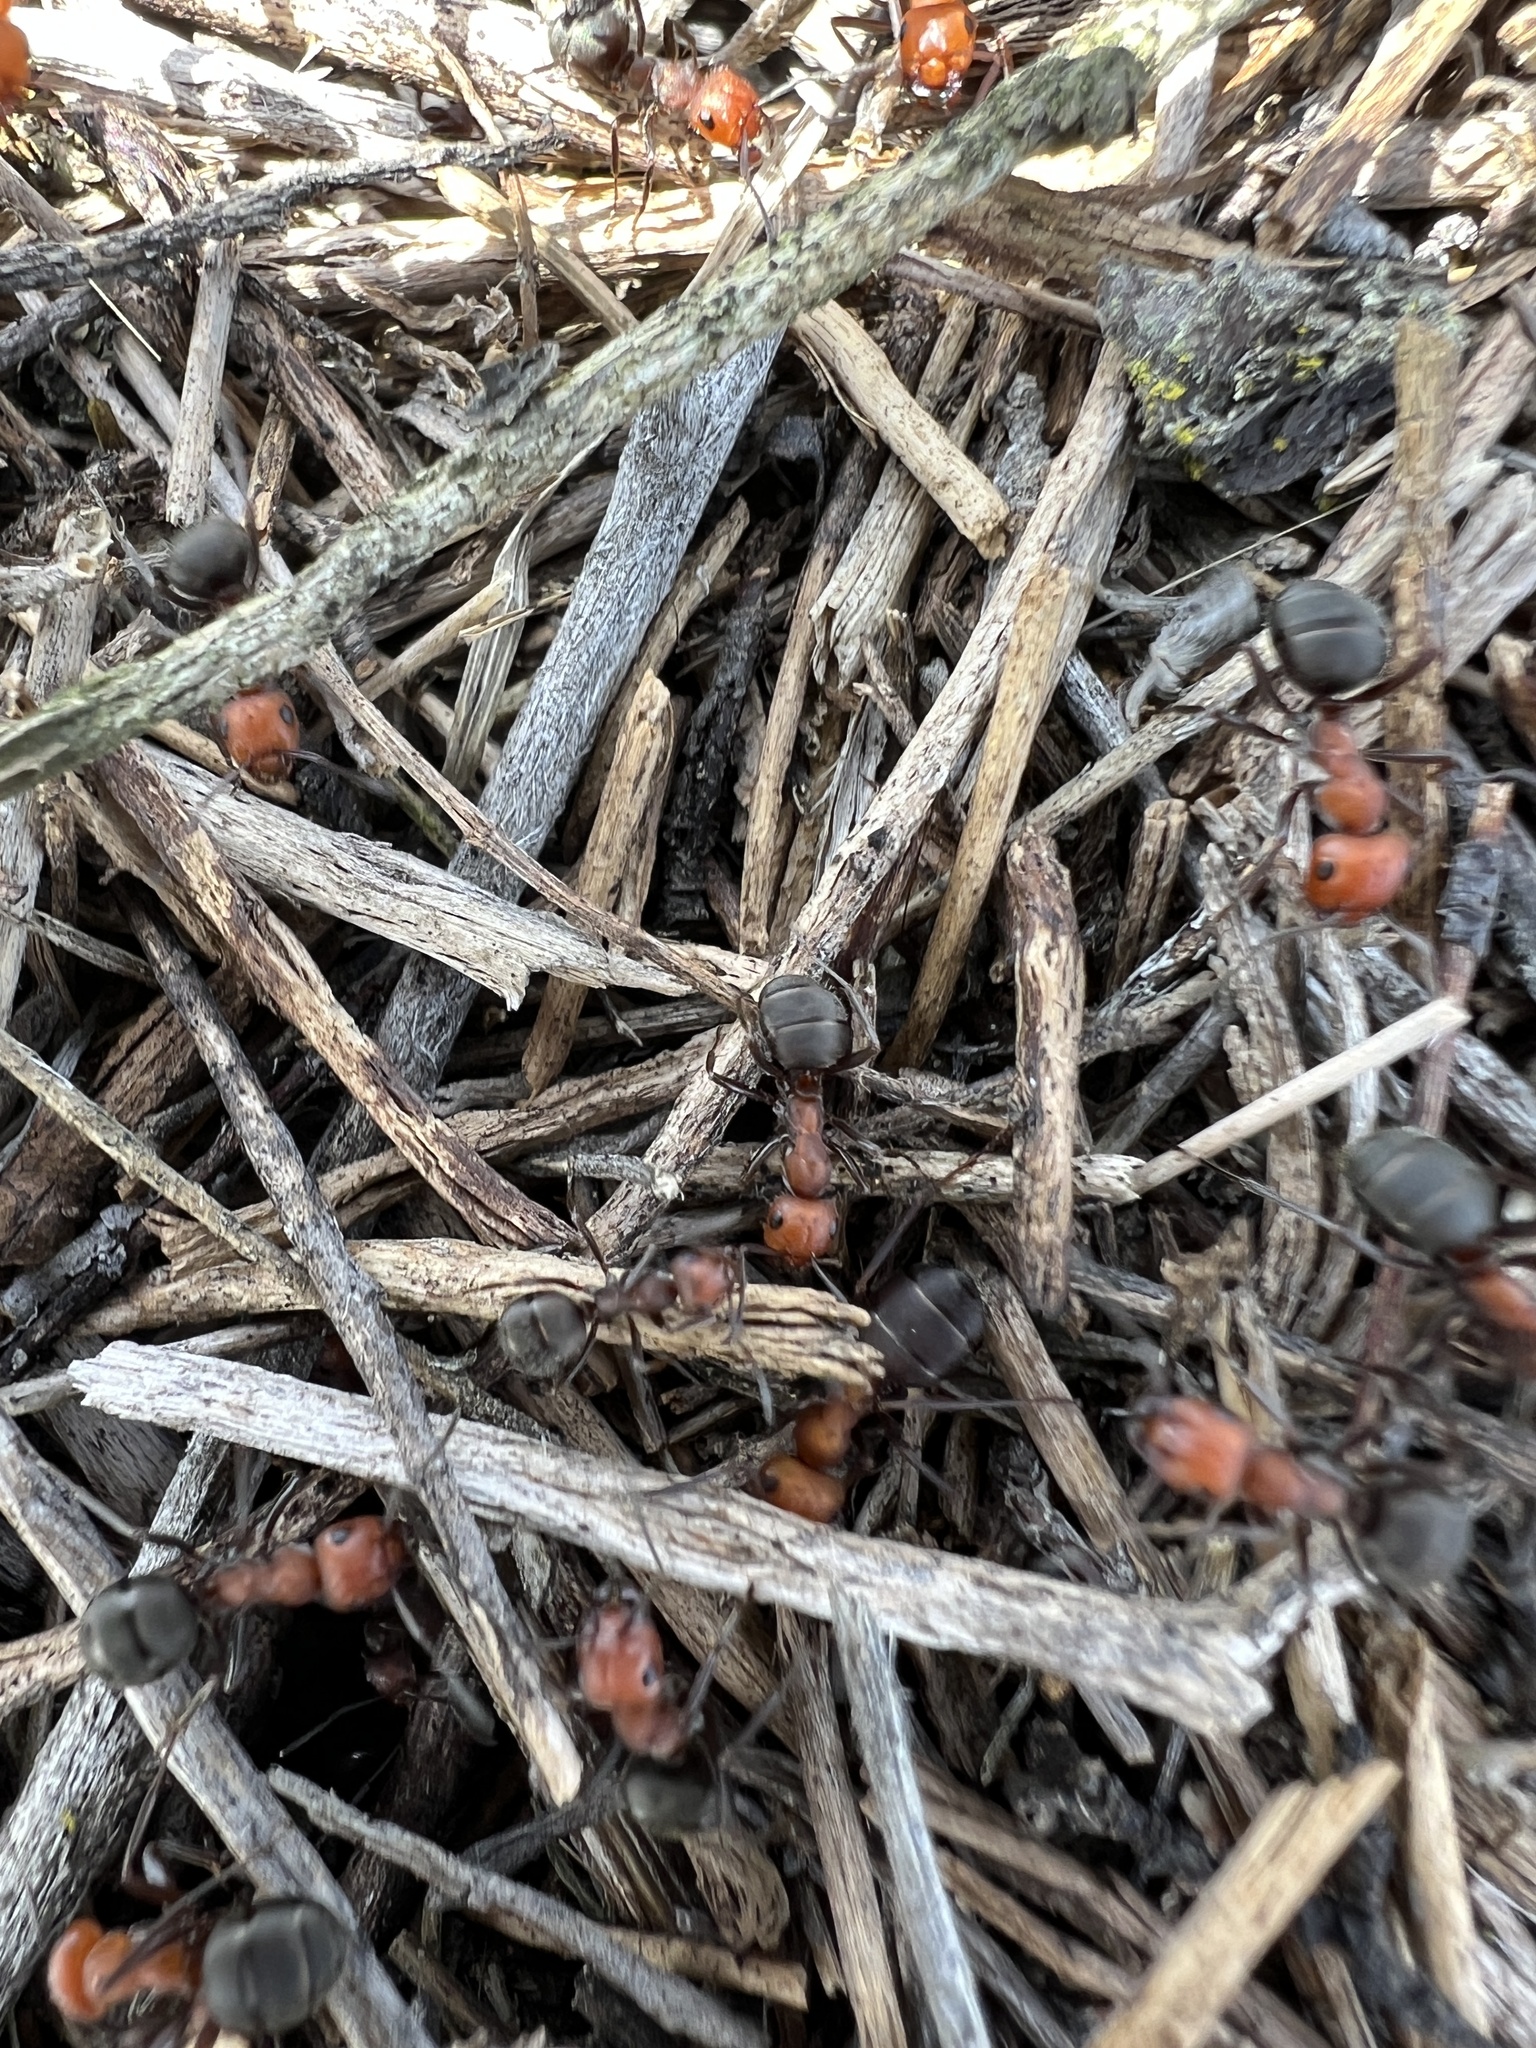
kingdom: Animalia
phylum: Arthropoda
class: Insecta
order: Hymenoptera
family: Formicidae
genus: Formica
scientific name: Formica obscuripes
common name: Western thatching ant
